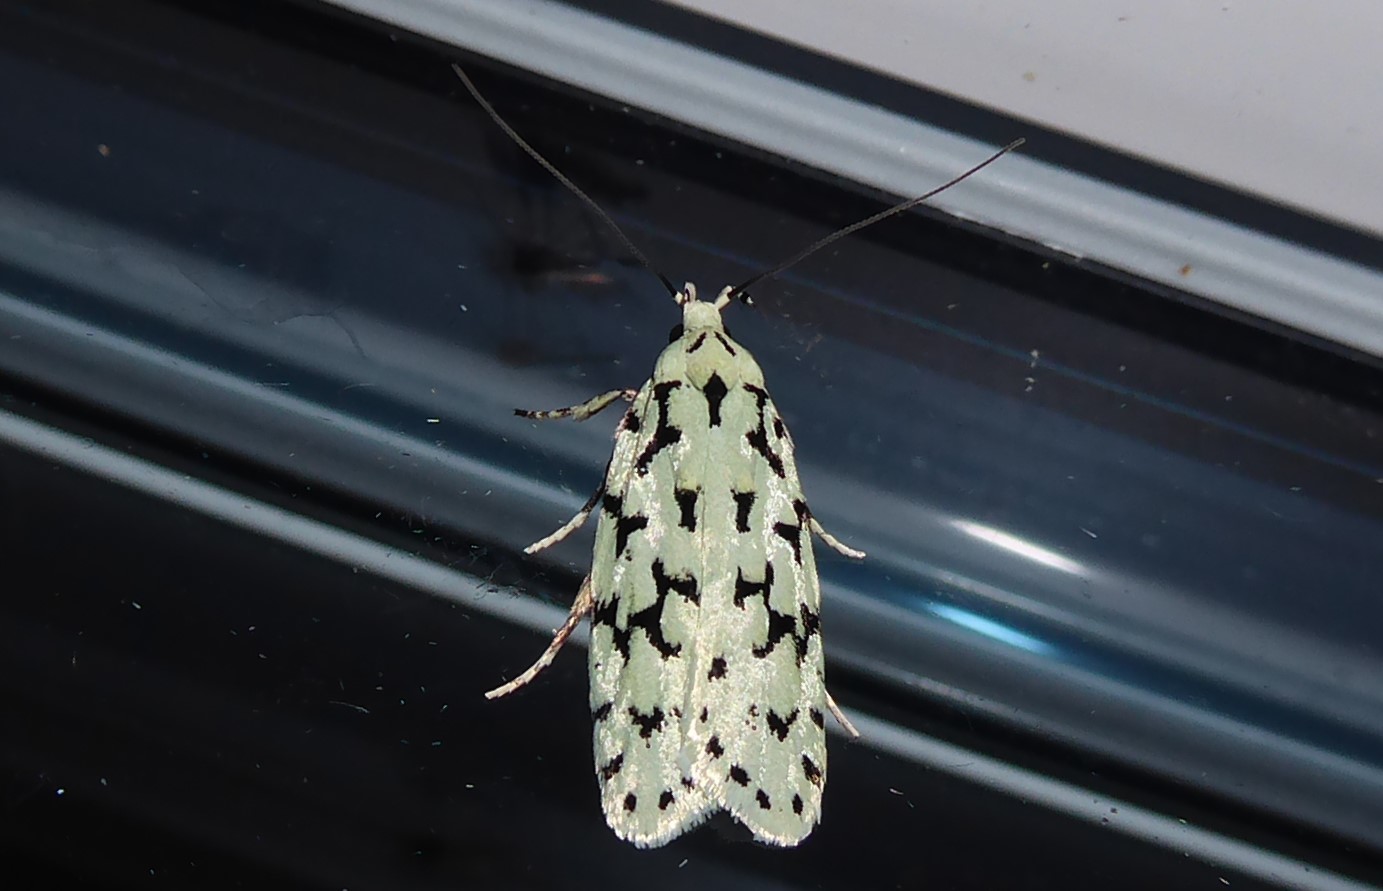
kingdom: Animalia
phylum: Arthropoda
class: Insecta
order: Lepidoptera
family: Oecophoridae
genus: Izatha
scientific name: Izatha huttoni
